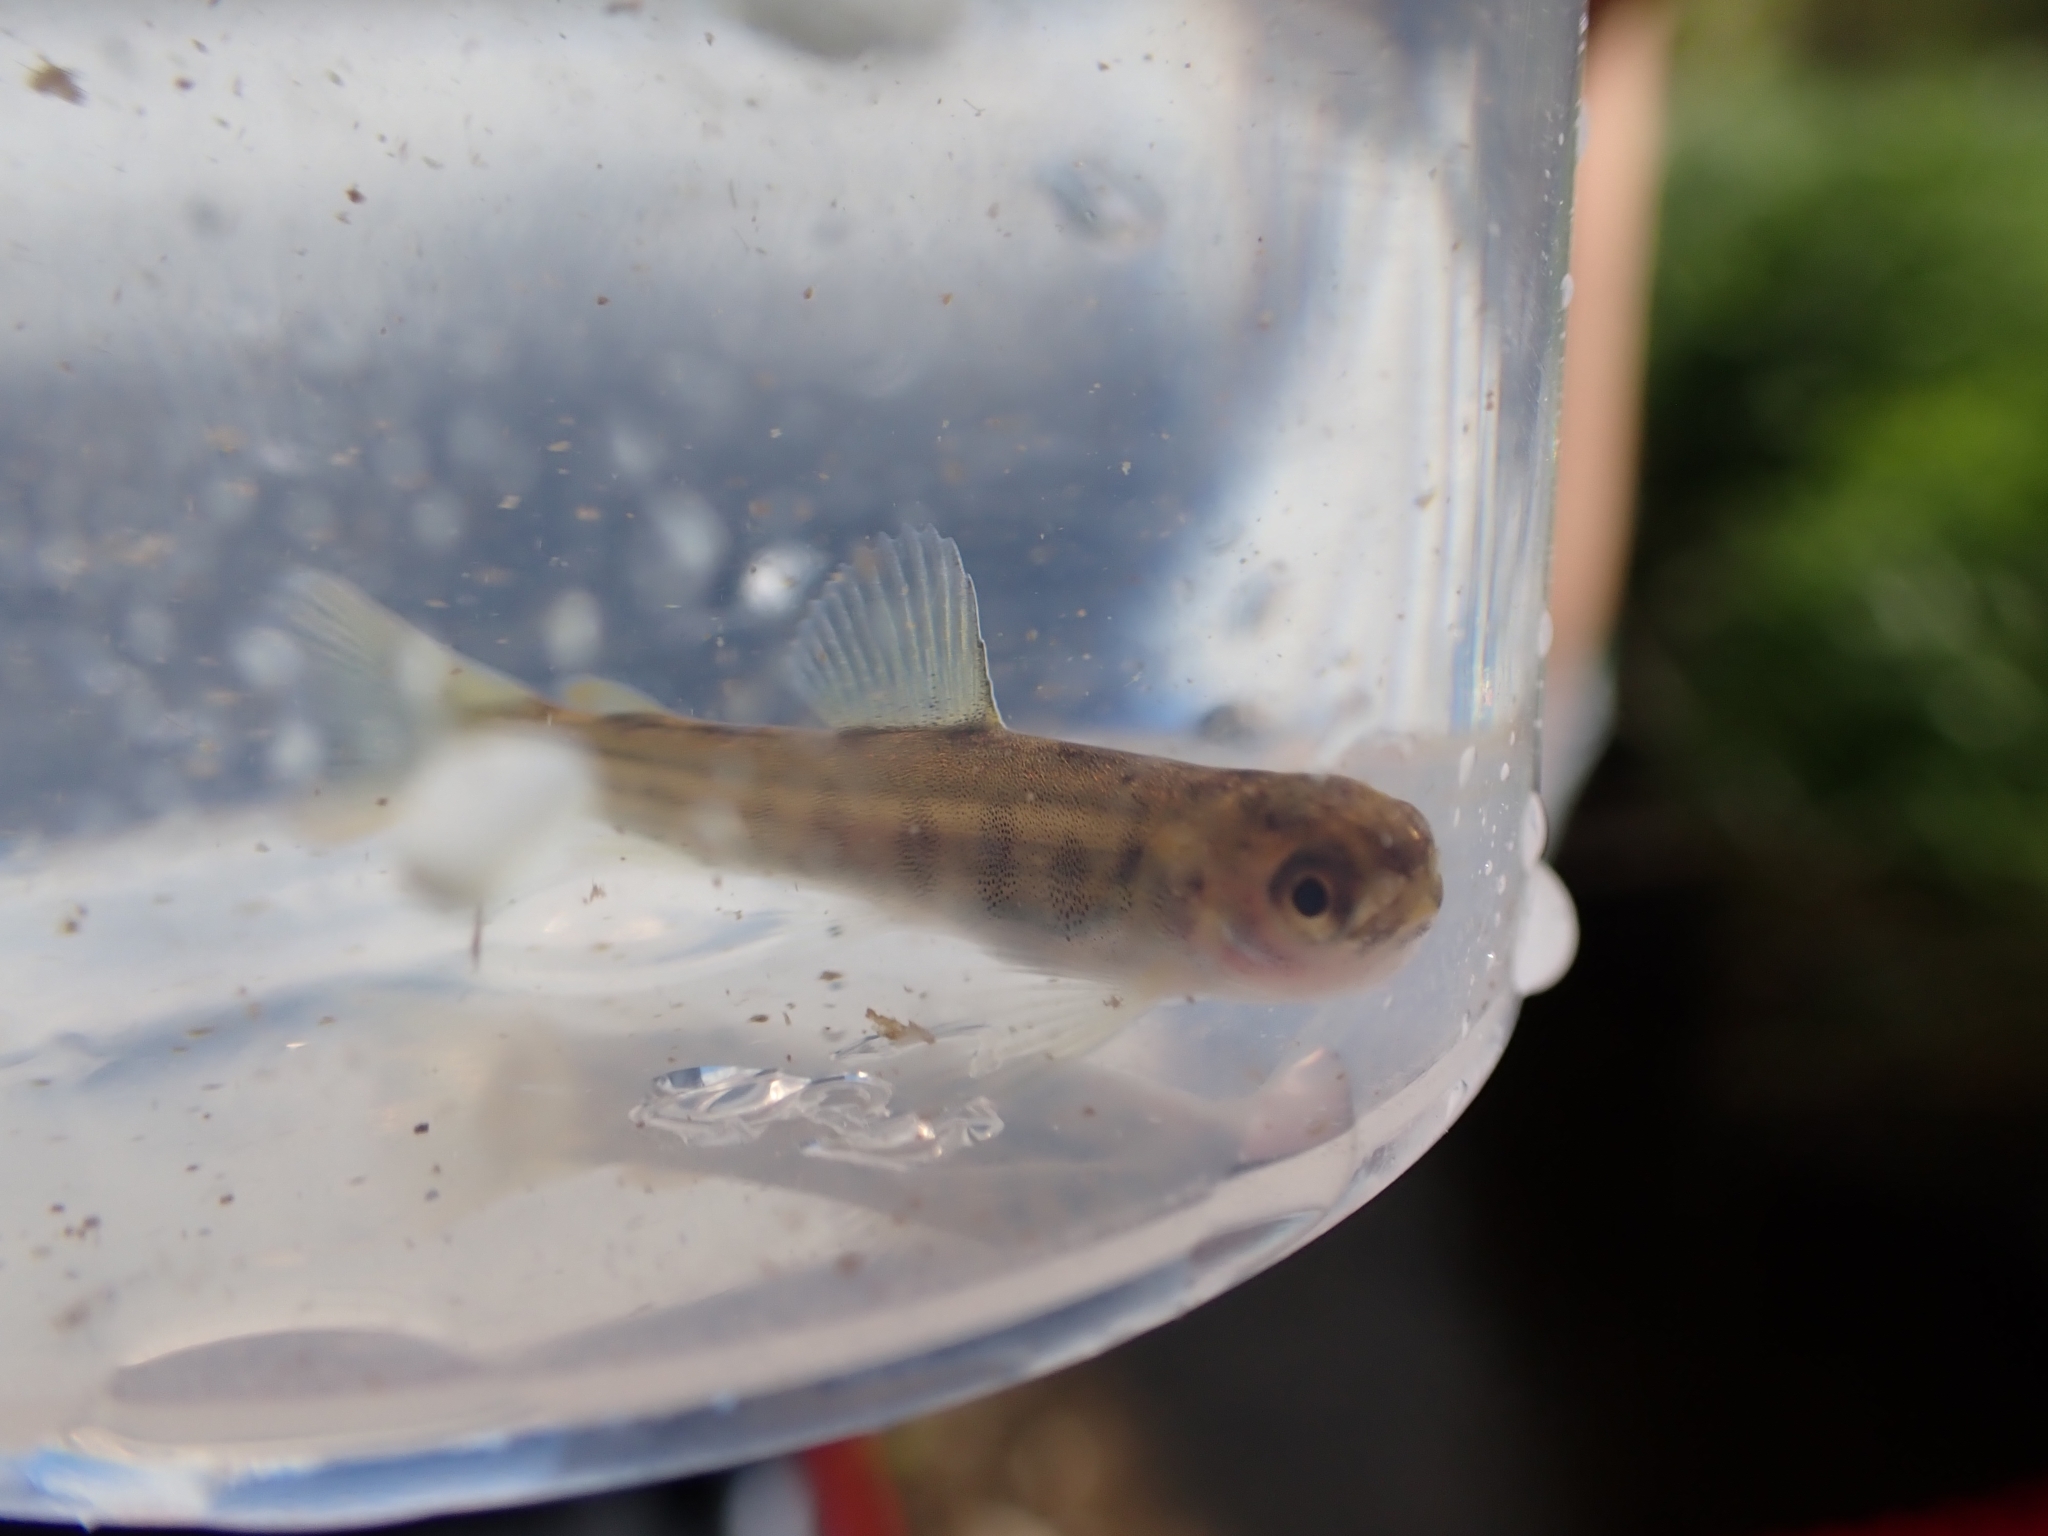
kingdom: Animalia
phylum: Chordata
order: Salmoniformes
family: Salmonidae
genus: Salmo
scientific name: Salmo trutta
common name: Brown trout
